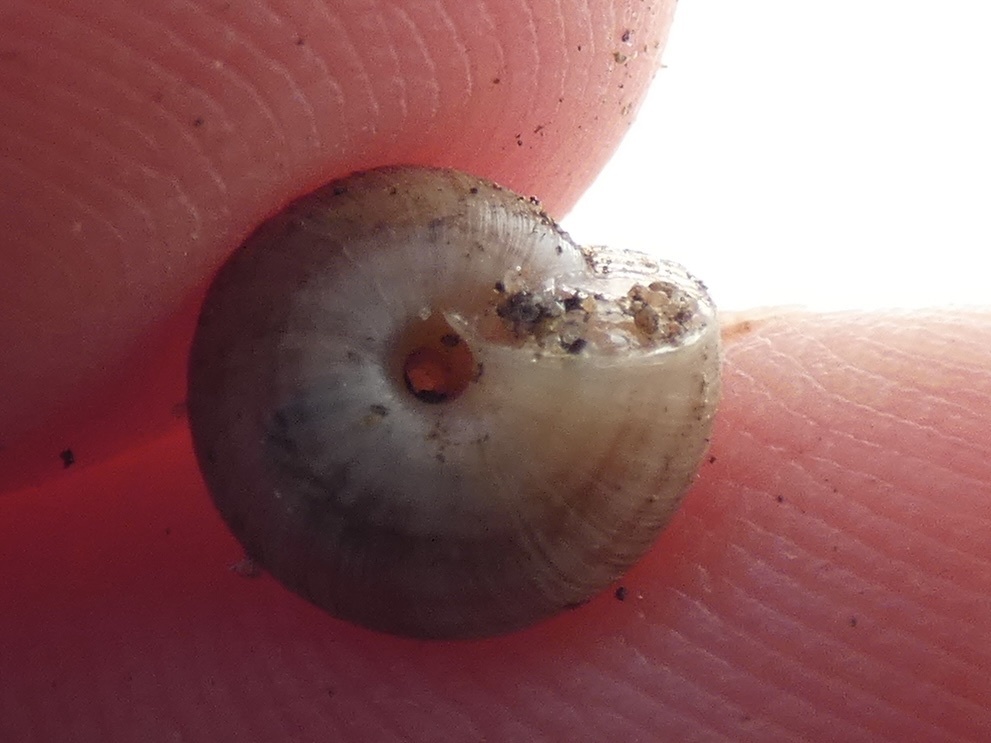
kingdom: Animalia
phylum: Mollusca
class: Gastropoda
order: Stylommatophora
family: Geomitridae
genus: Xeroplexa
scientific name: Xeroplexa intersecta
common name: Wrinkled snail
